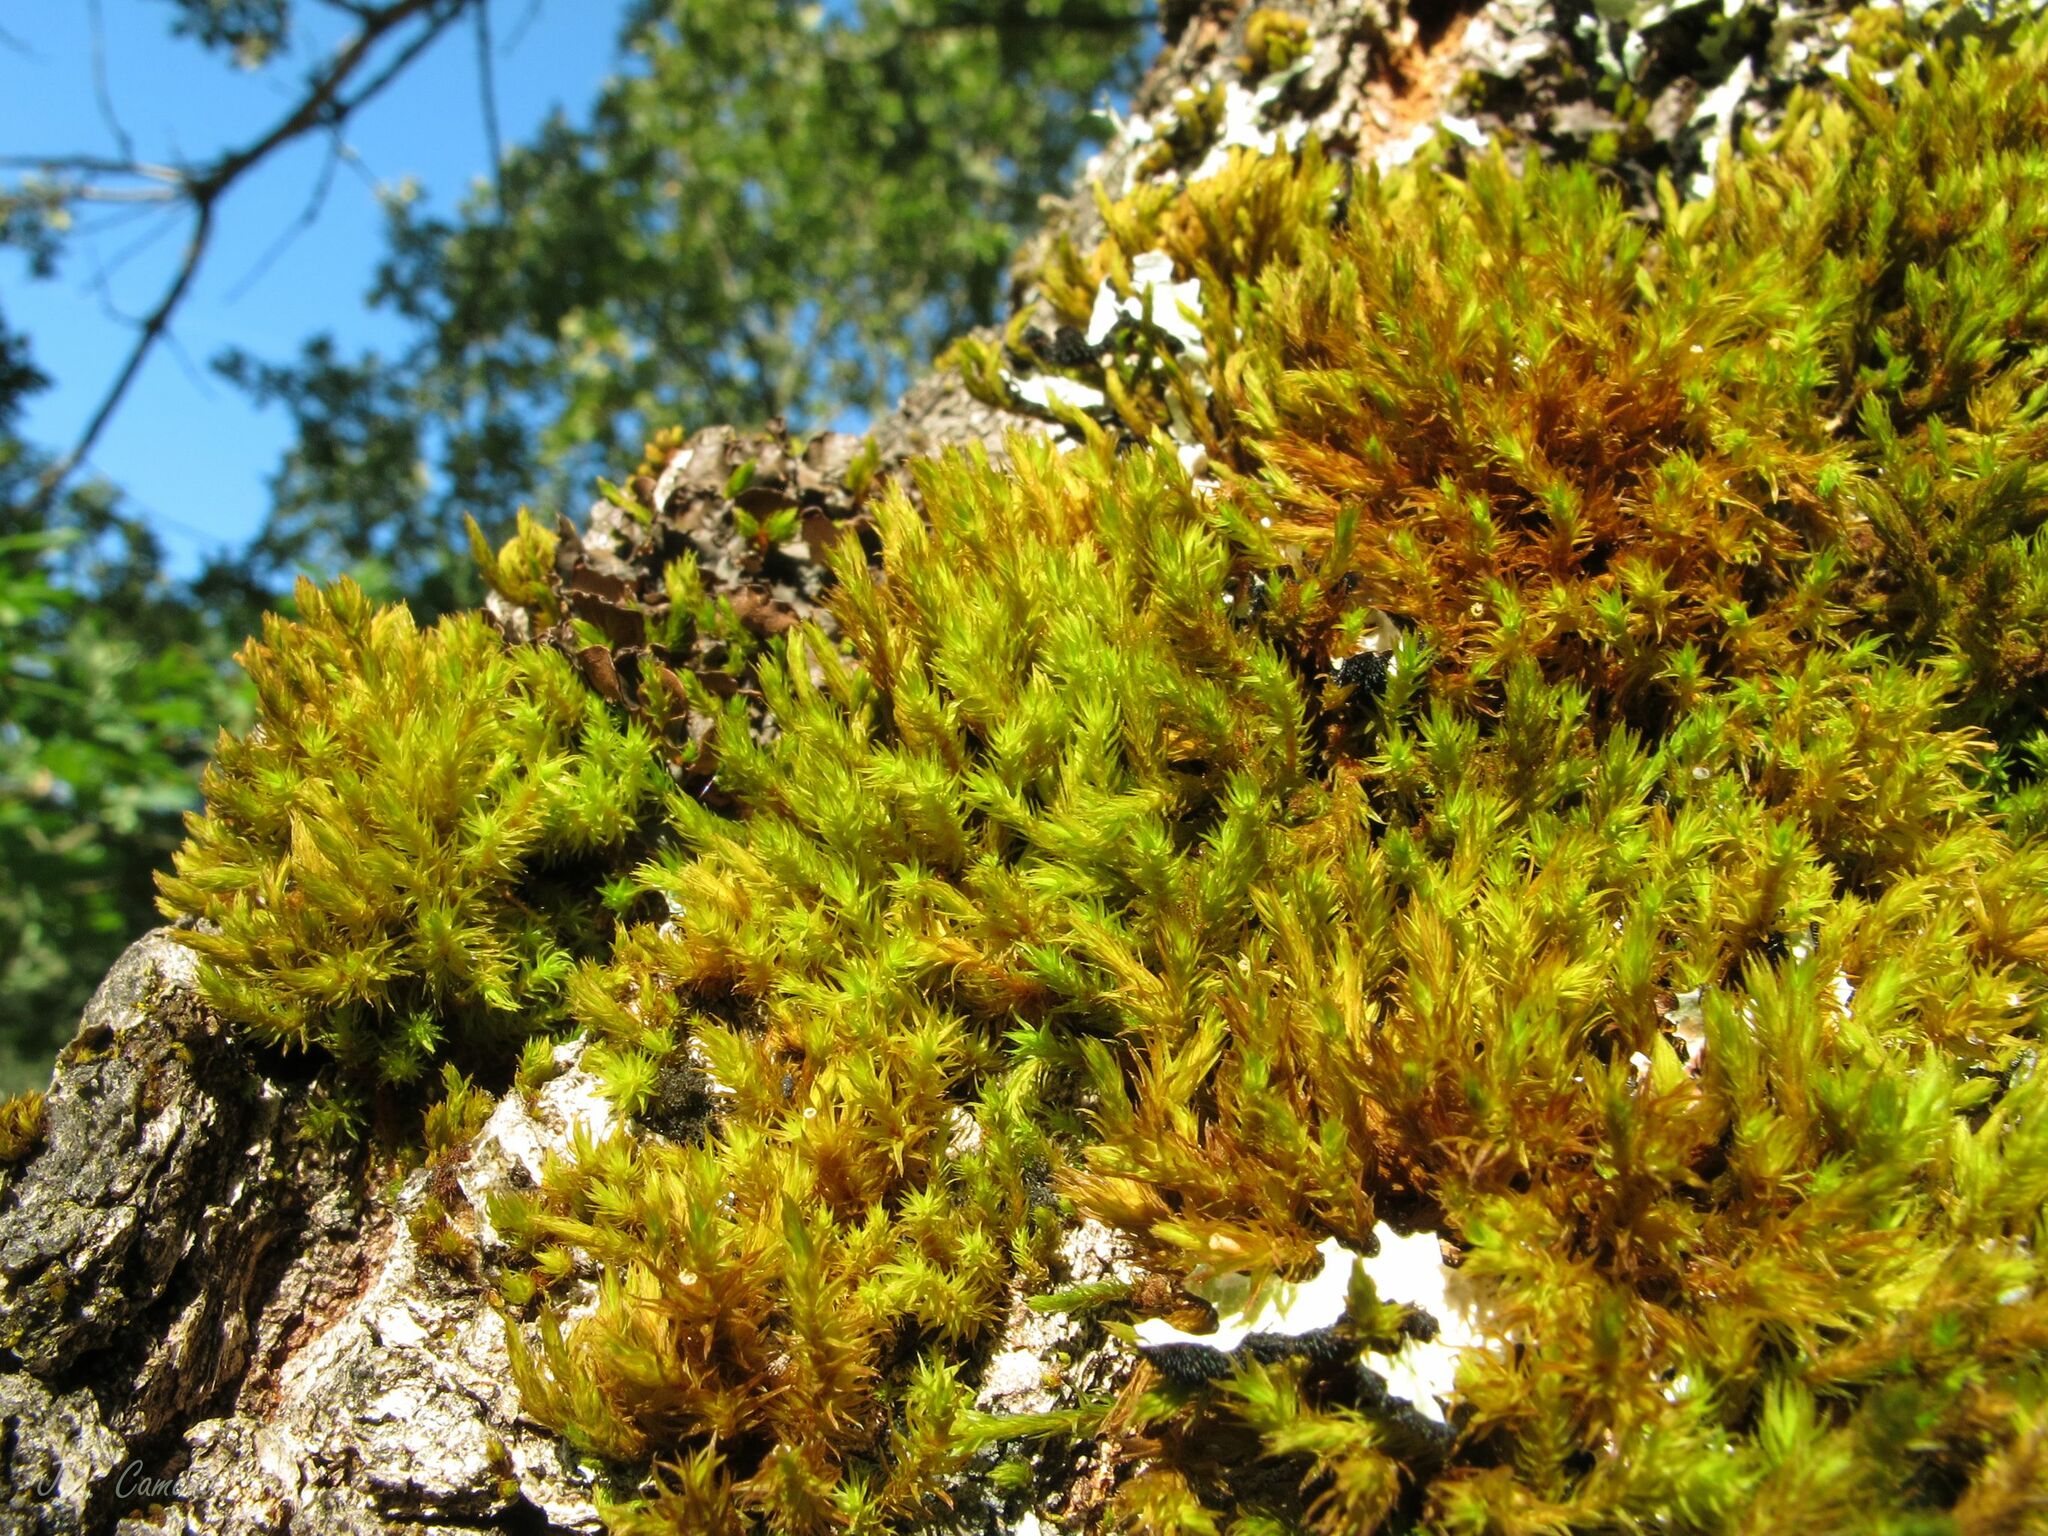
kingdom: Plantae
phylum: Bryophyta
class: Bryopsida
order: Orthotrichales
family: Orthotrichaceae
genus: Pulvigera
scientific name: Pulvigera lyellii
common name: Lyell's bristle-moss
